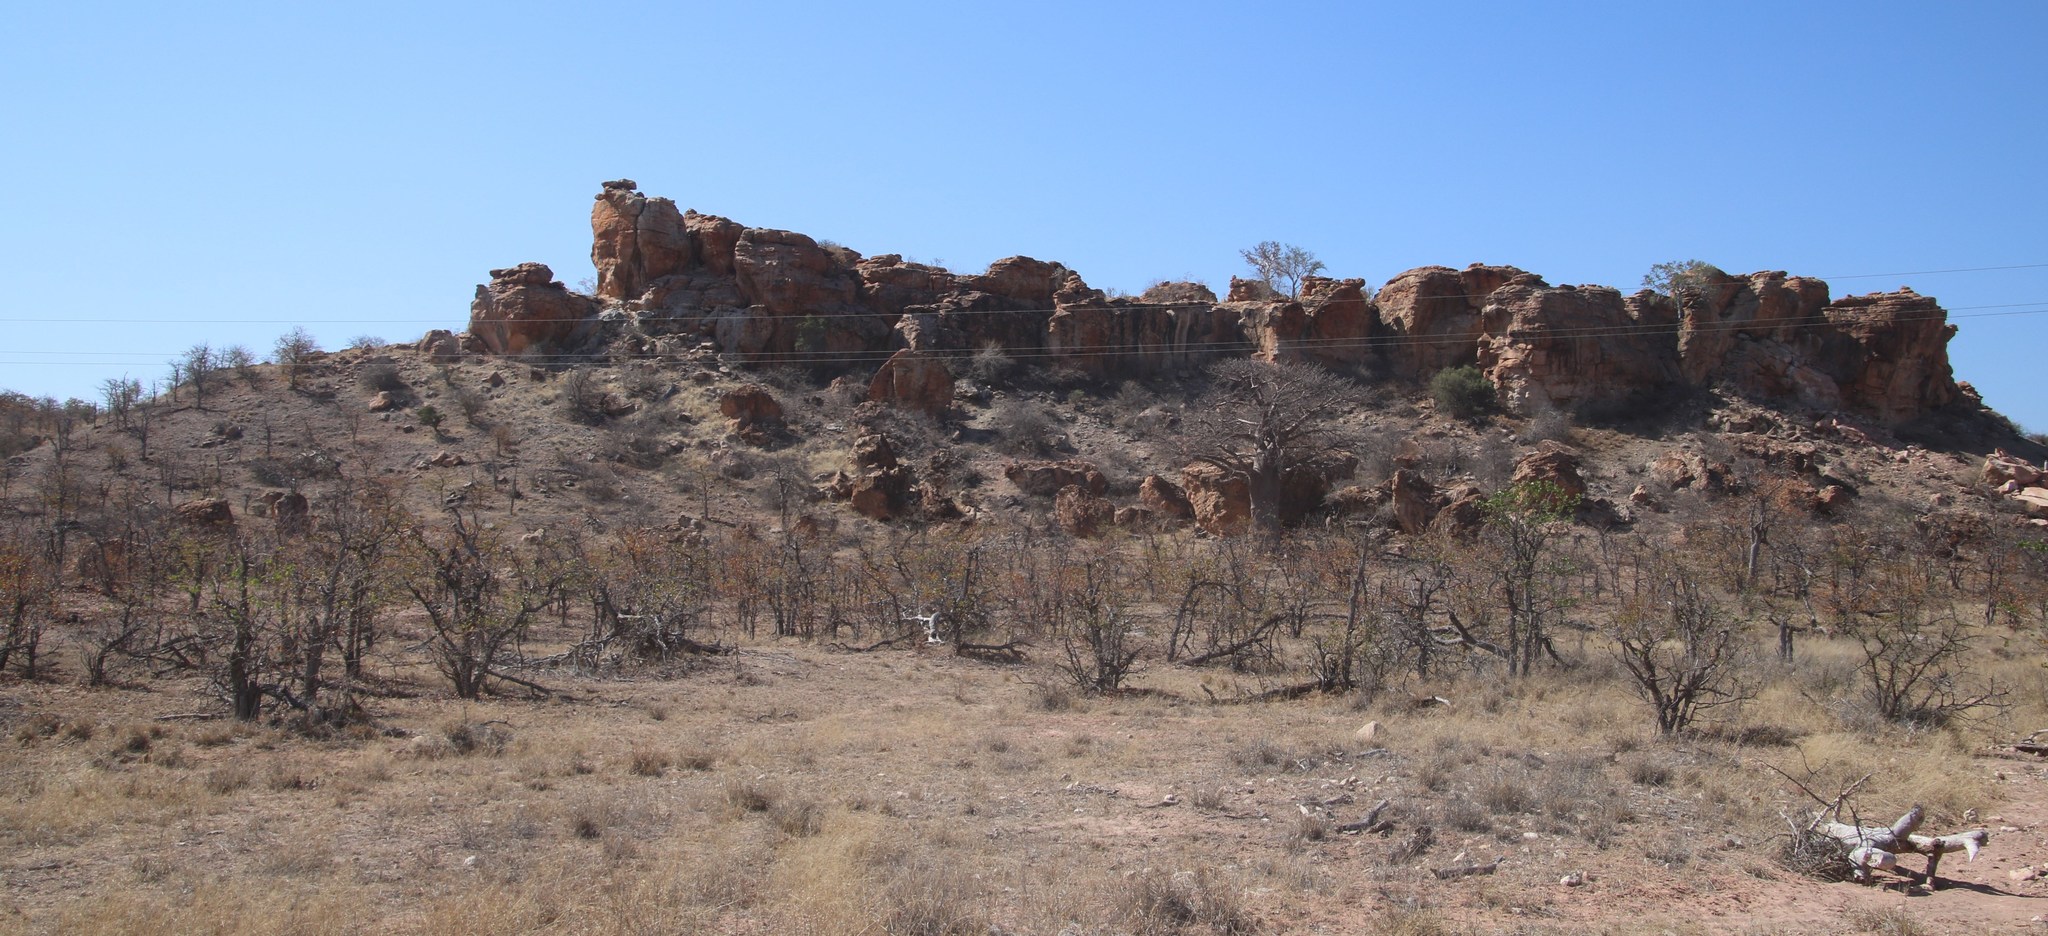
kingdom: Plantae
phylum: Tracheophyta
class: Magnoliopsida
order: Fabales
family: Fabaceae
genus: Colophospermum
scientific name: Colophospermum mopane
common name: Mopane
